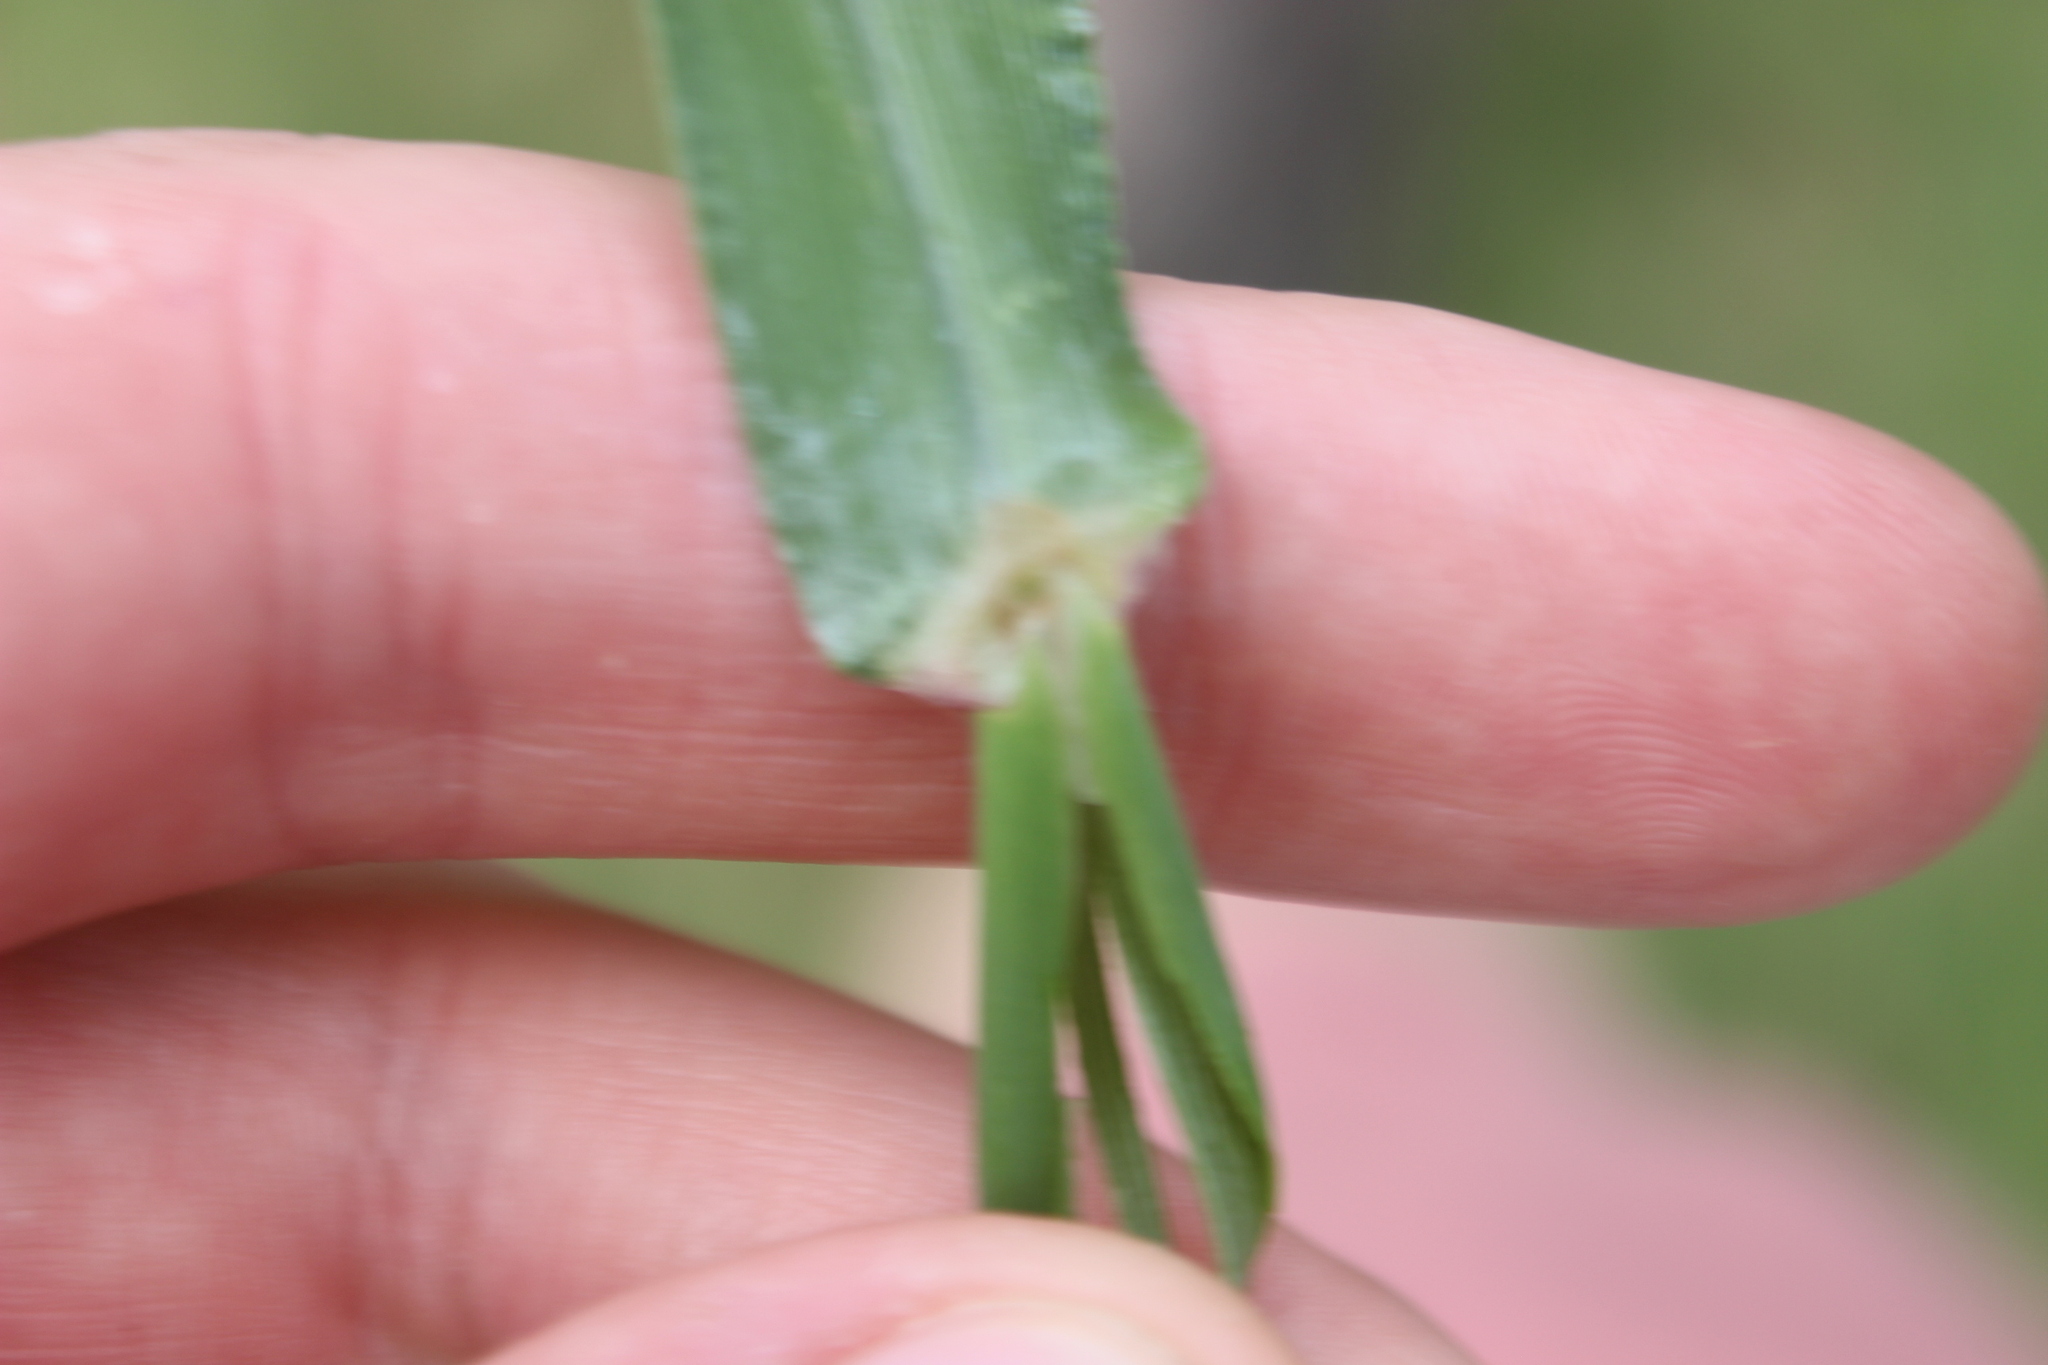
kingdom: Plantae
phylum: Tracheophyta
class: Liliopsida
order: Poales
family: Poaceae
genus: Paspalum
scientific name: Paspalum urvillei
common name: Vasey's grass
